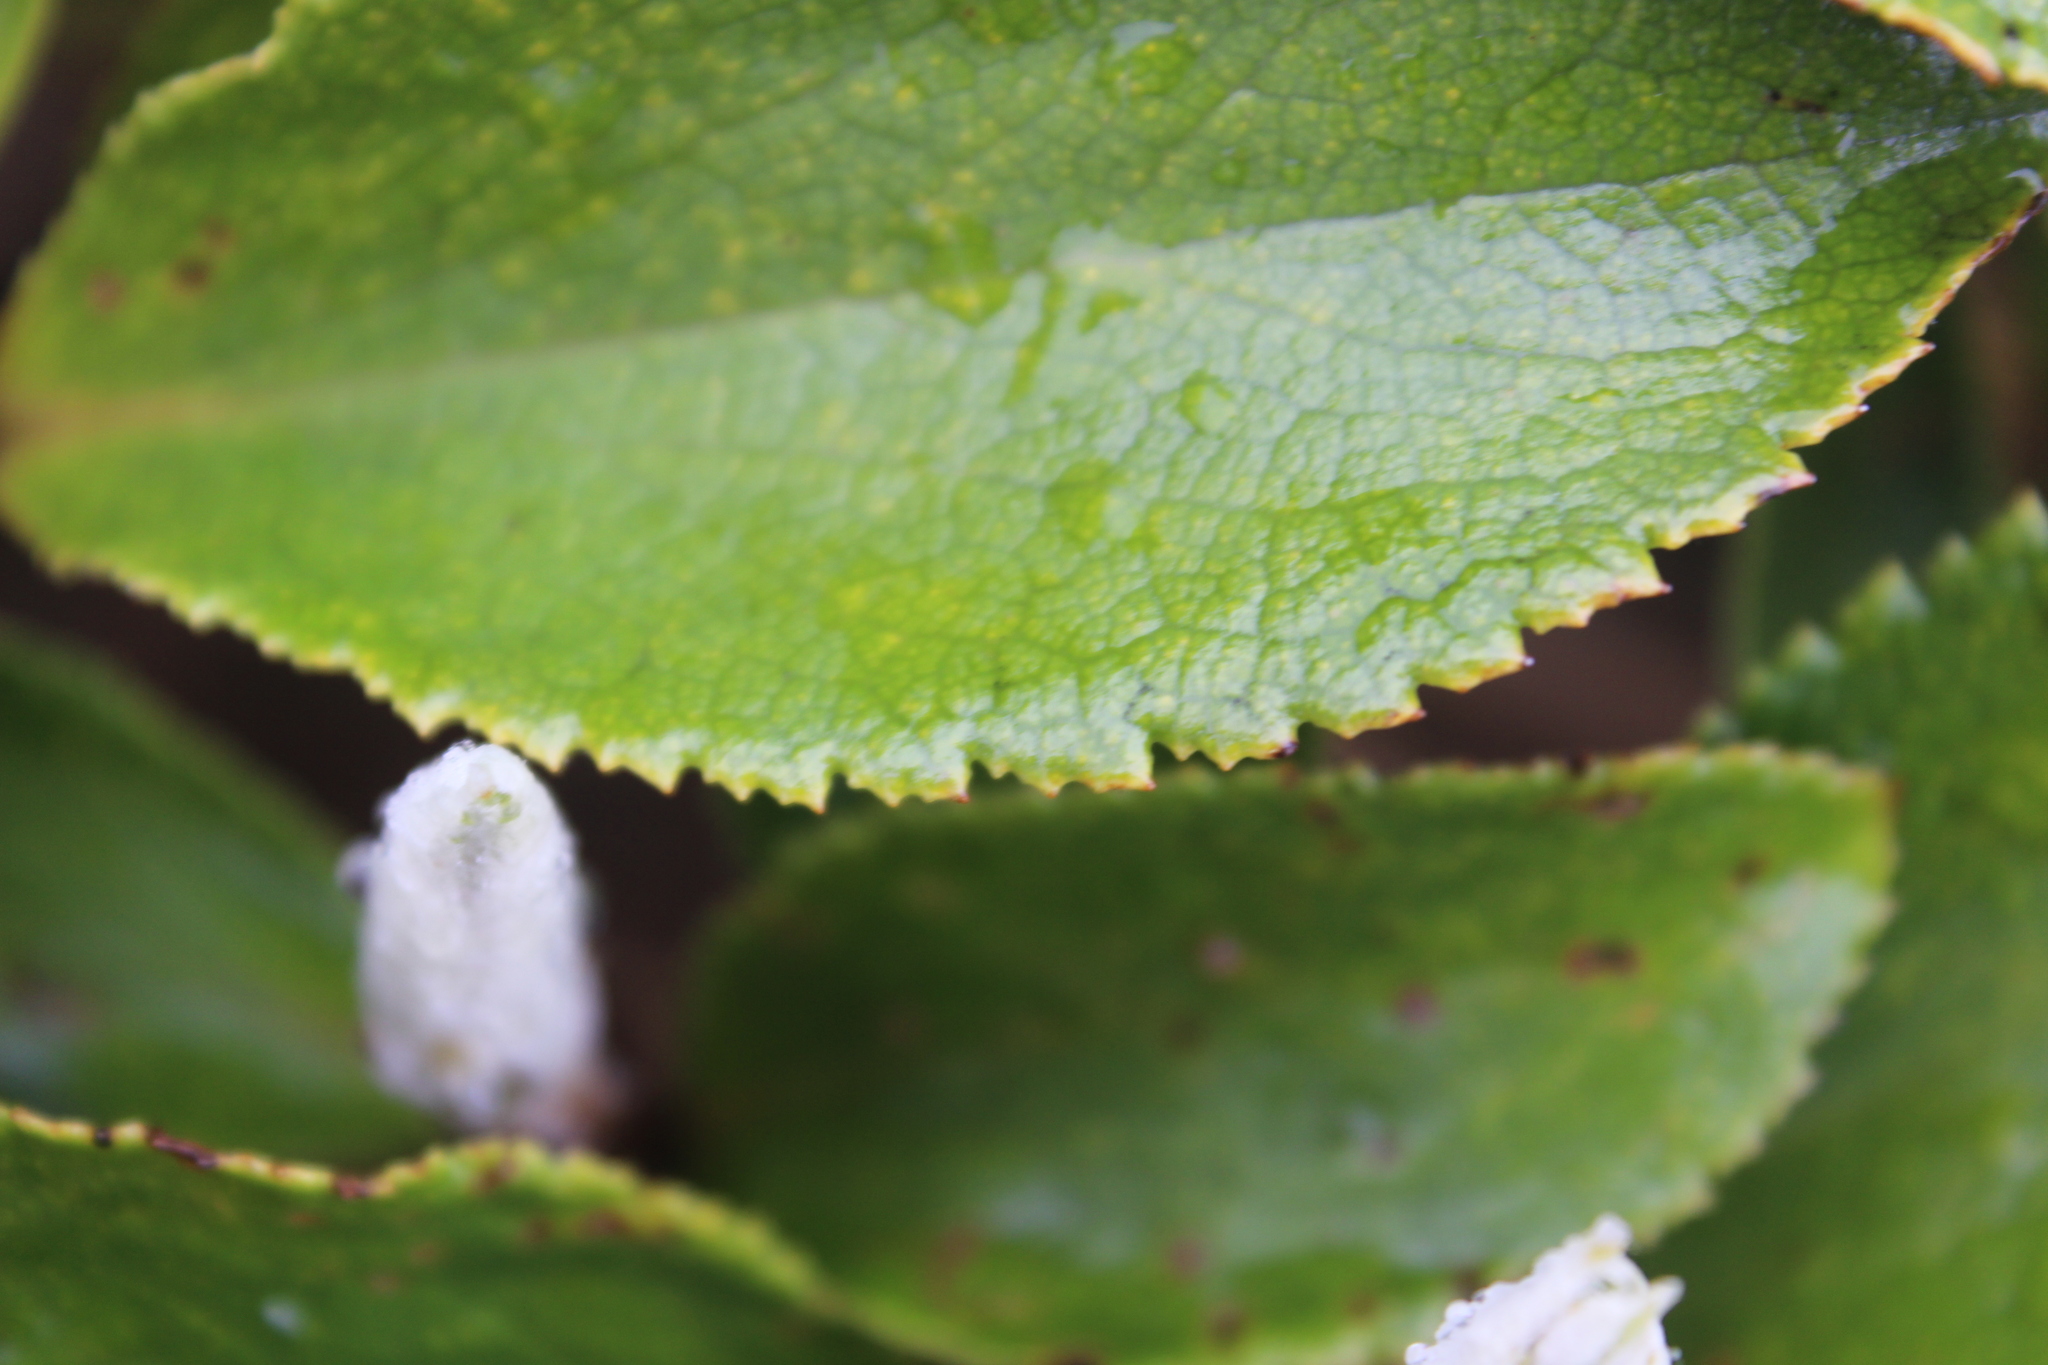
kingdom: Plantae
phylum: Tracheophyta
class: Magnoliopsida
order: Asterales
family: Asteraceae
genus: Macrolearia
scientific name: Macrolearia colensoi
